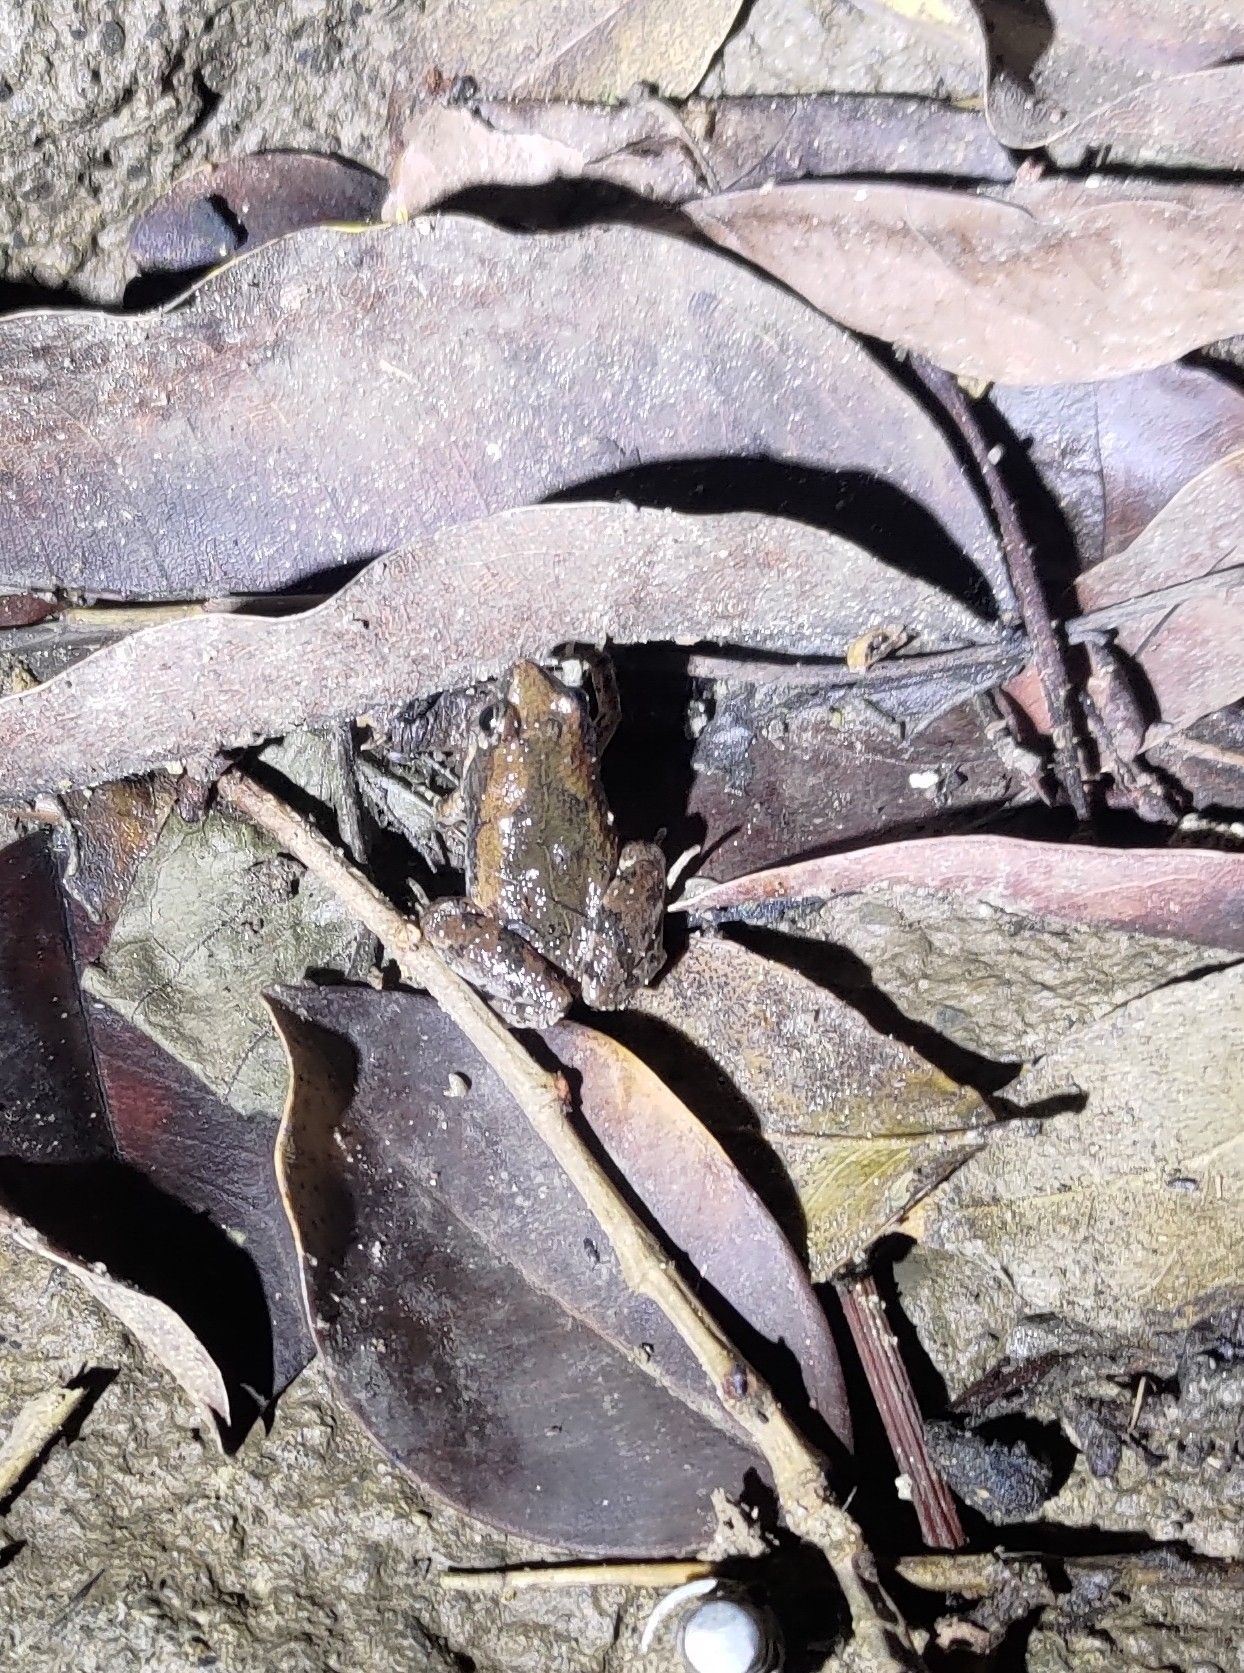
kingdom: Animalia
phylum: Chordata
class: Amphibia
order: Anura
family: Microhylidae
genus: Microhyla
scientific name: Microhyla fissipes
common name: Ornate narrow-mouthed frog
